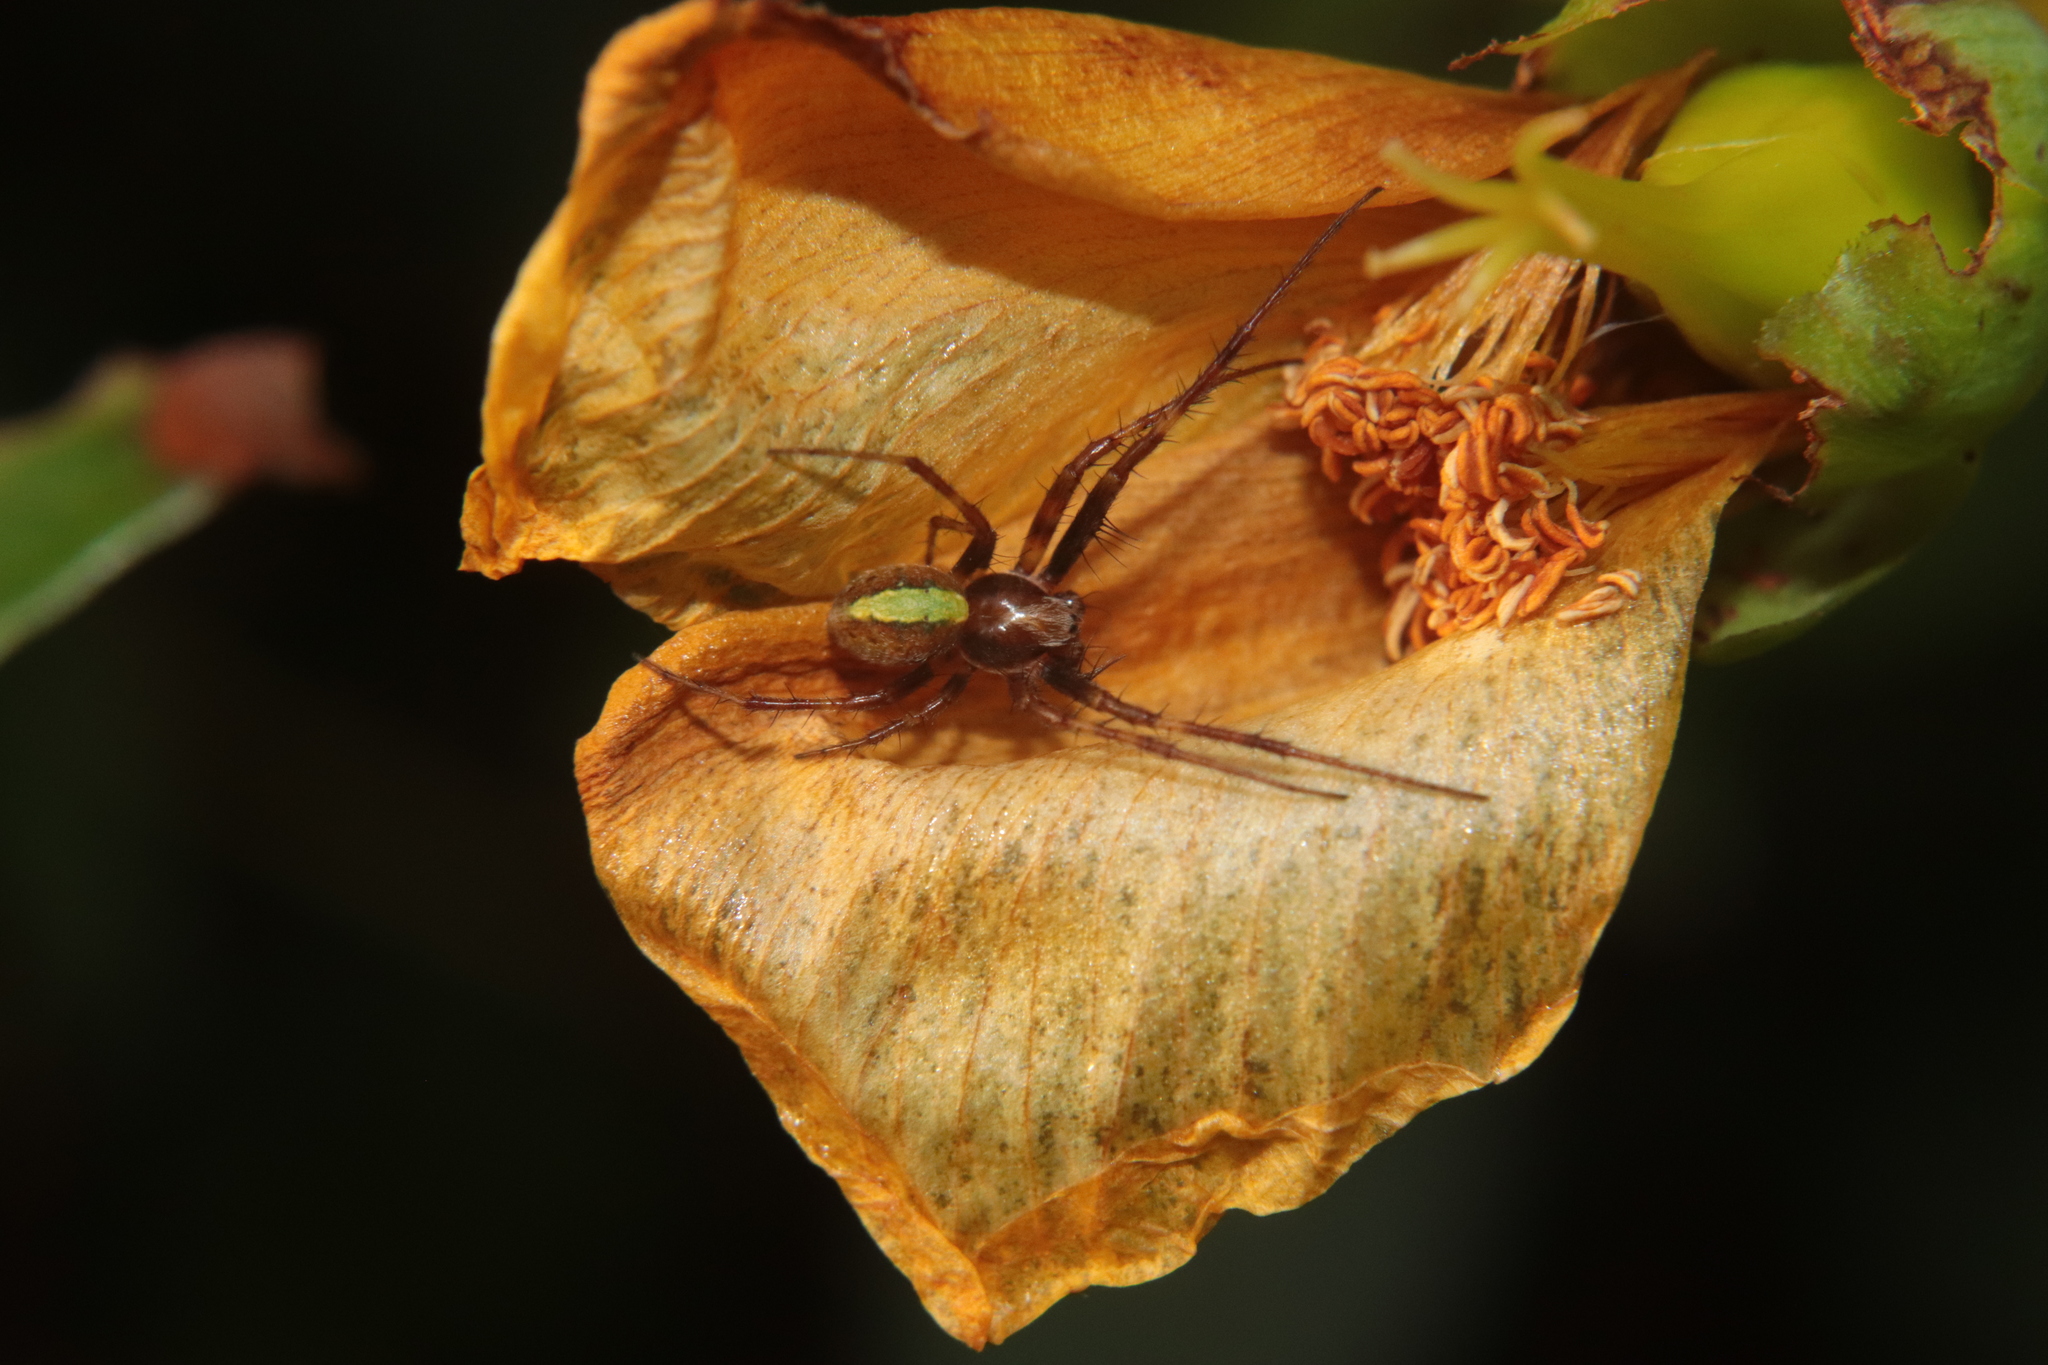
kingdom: Animalia
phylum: Arthropoda
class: Arachnida
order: Araneae
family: Araneidae
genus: Novaranea
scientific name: Novaranea queribunda
